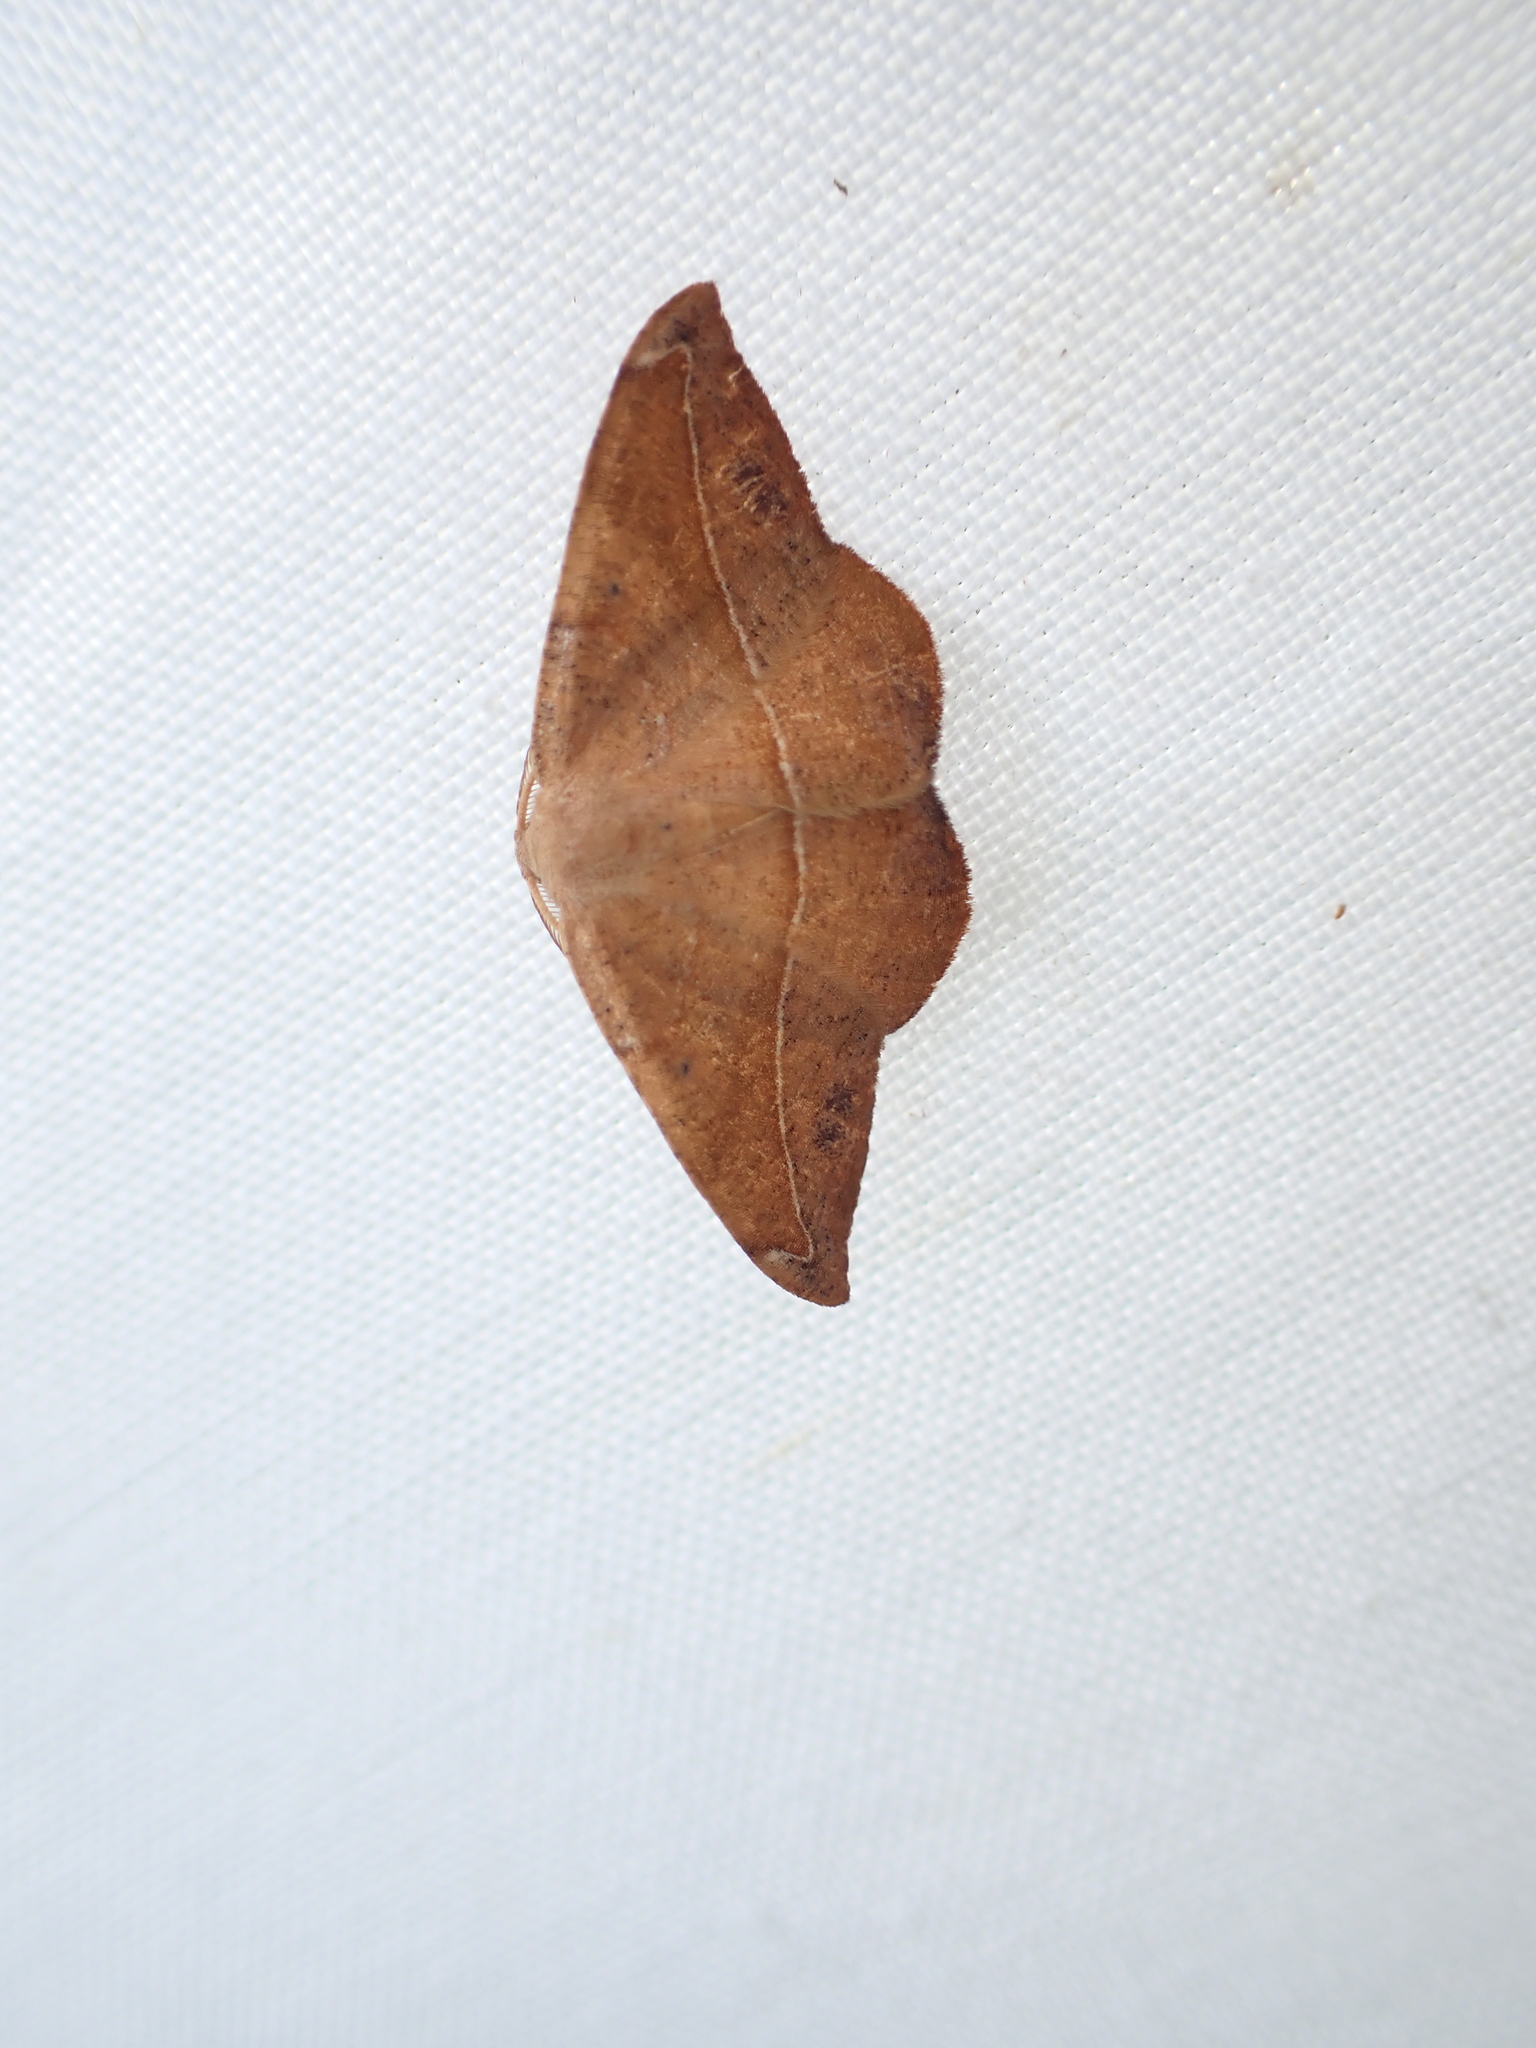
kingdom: Animalia
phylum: Arthropoda
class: Insecta
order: Lepidoptera
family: Geometridae
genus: Patalene
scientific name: Patalene olyzonaria
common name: Juniper geometer moth
